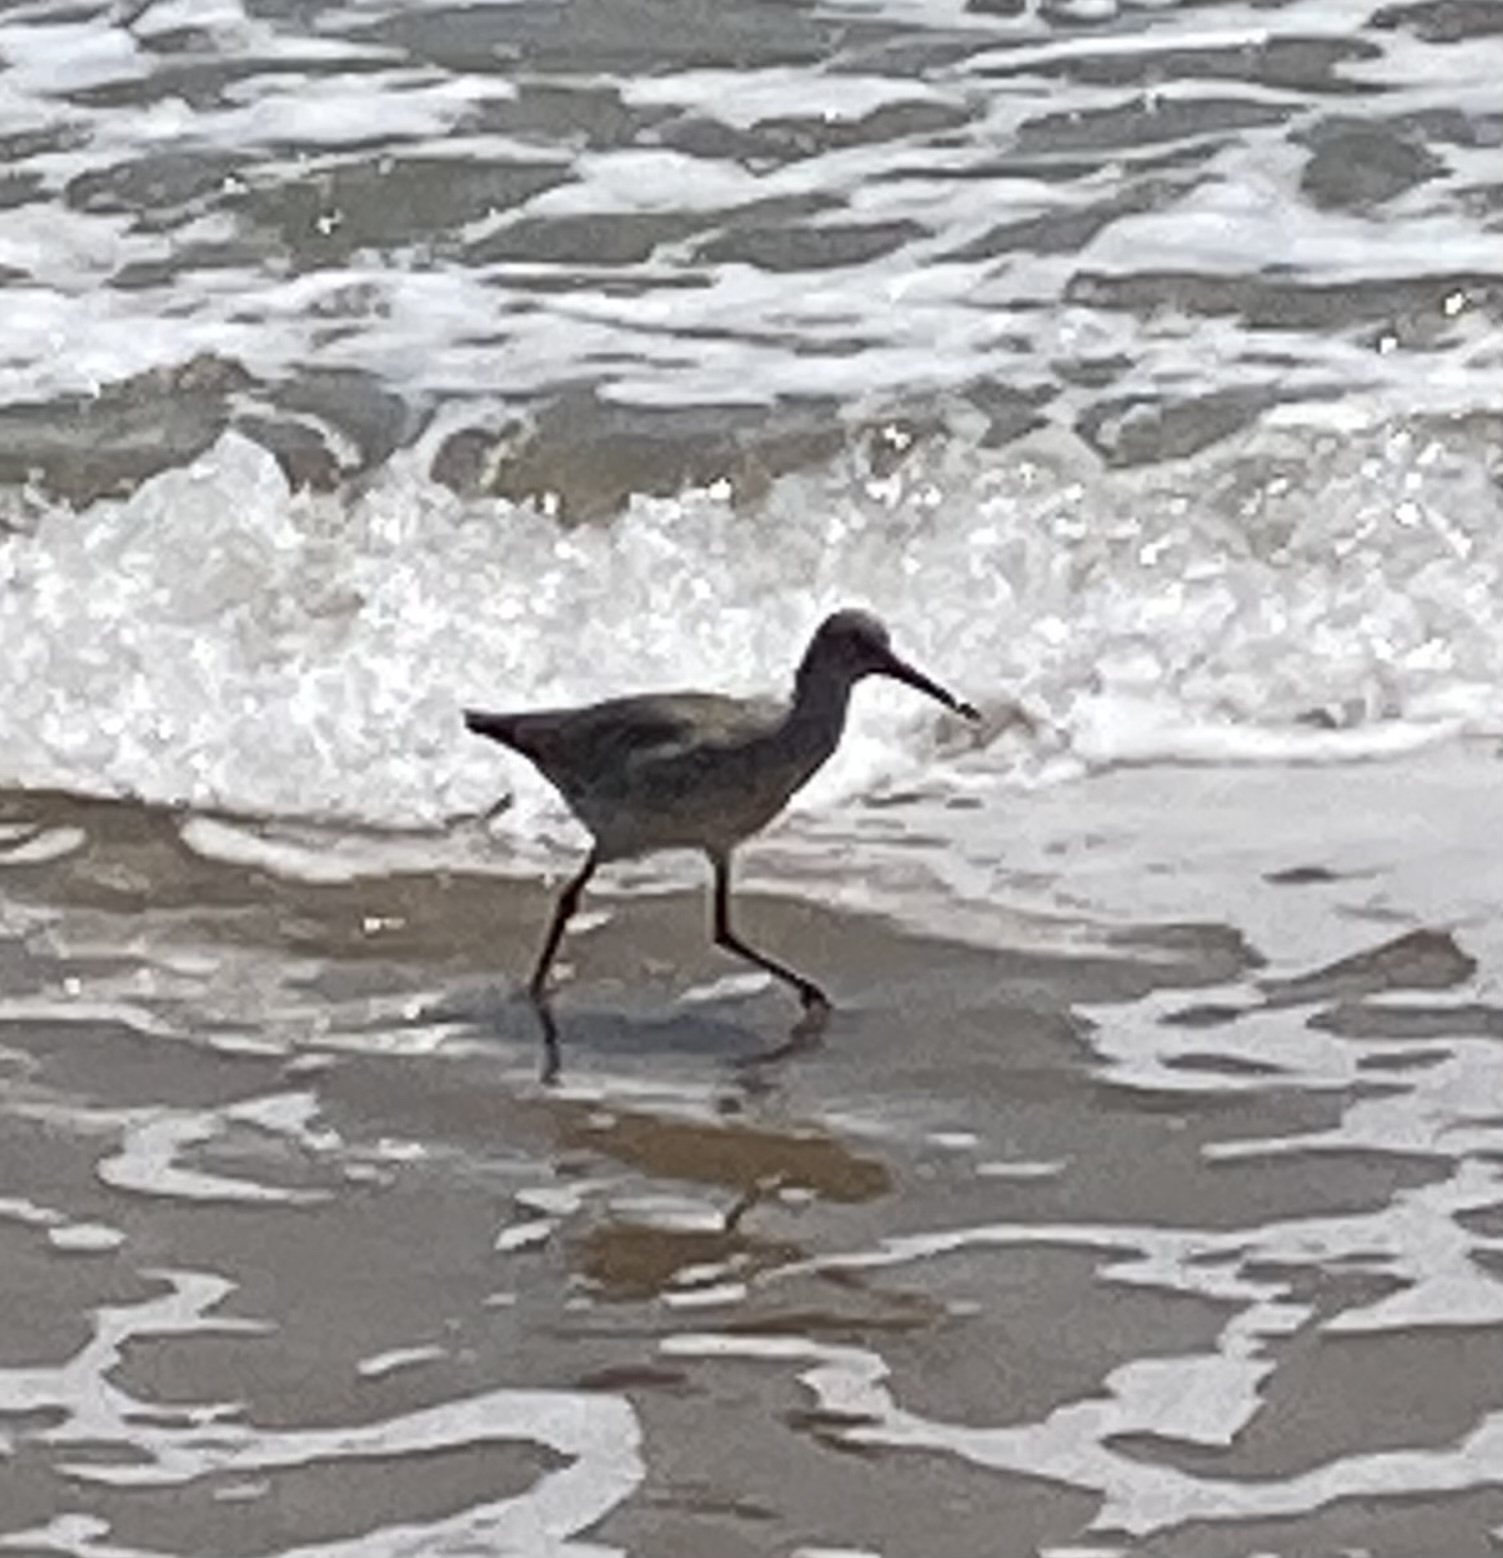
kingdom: Animalia
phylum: Chordata
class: Aves
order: Charadriiformes
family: Scolopacidae
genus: Tringa
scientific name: Tringa semipalmata
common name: Willet
